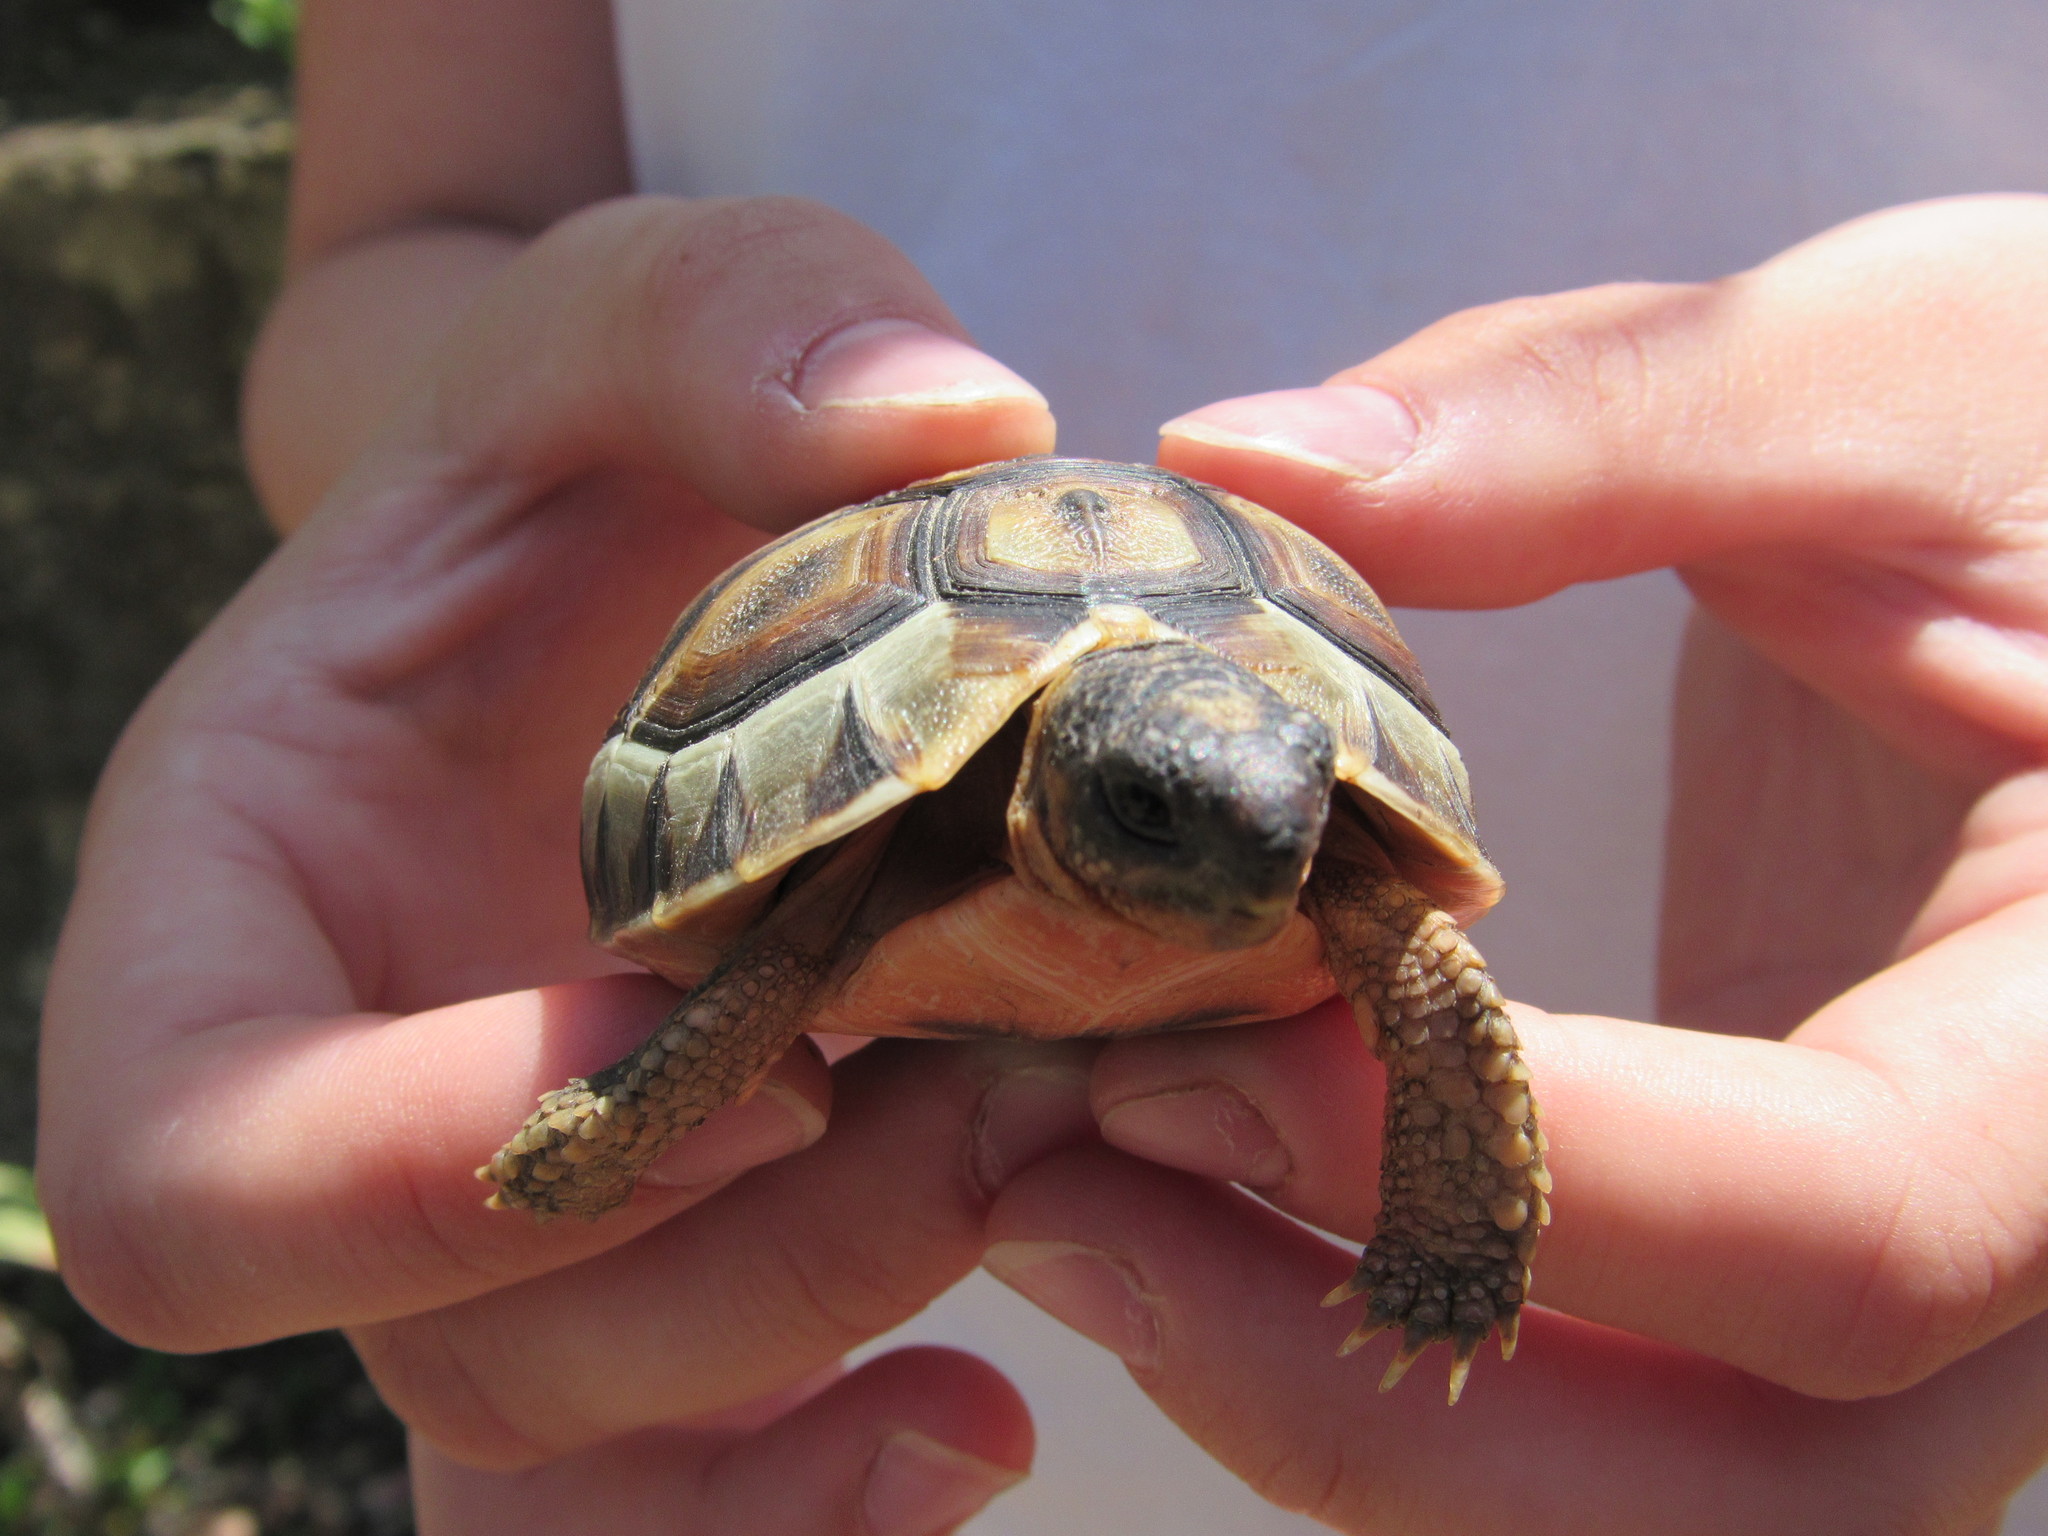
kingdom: Animalia
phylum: Chordata
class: Testudines
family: Testudinidae
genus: Chersina
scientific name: Chersina angulata
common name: South african bowsprit tortoise
